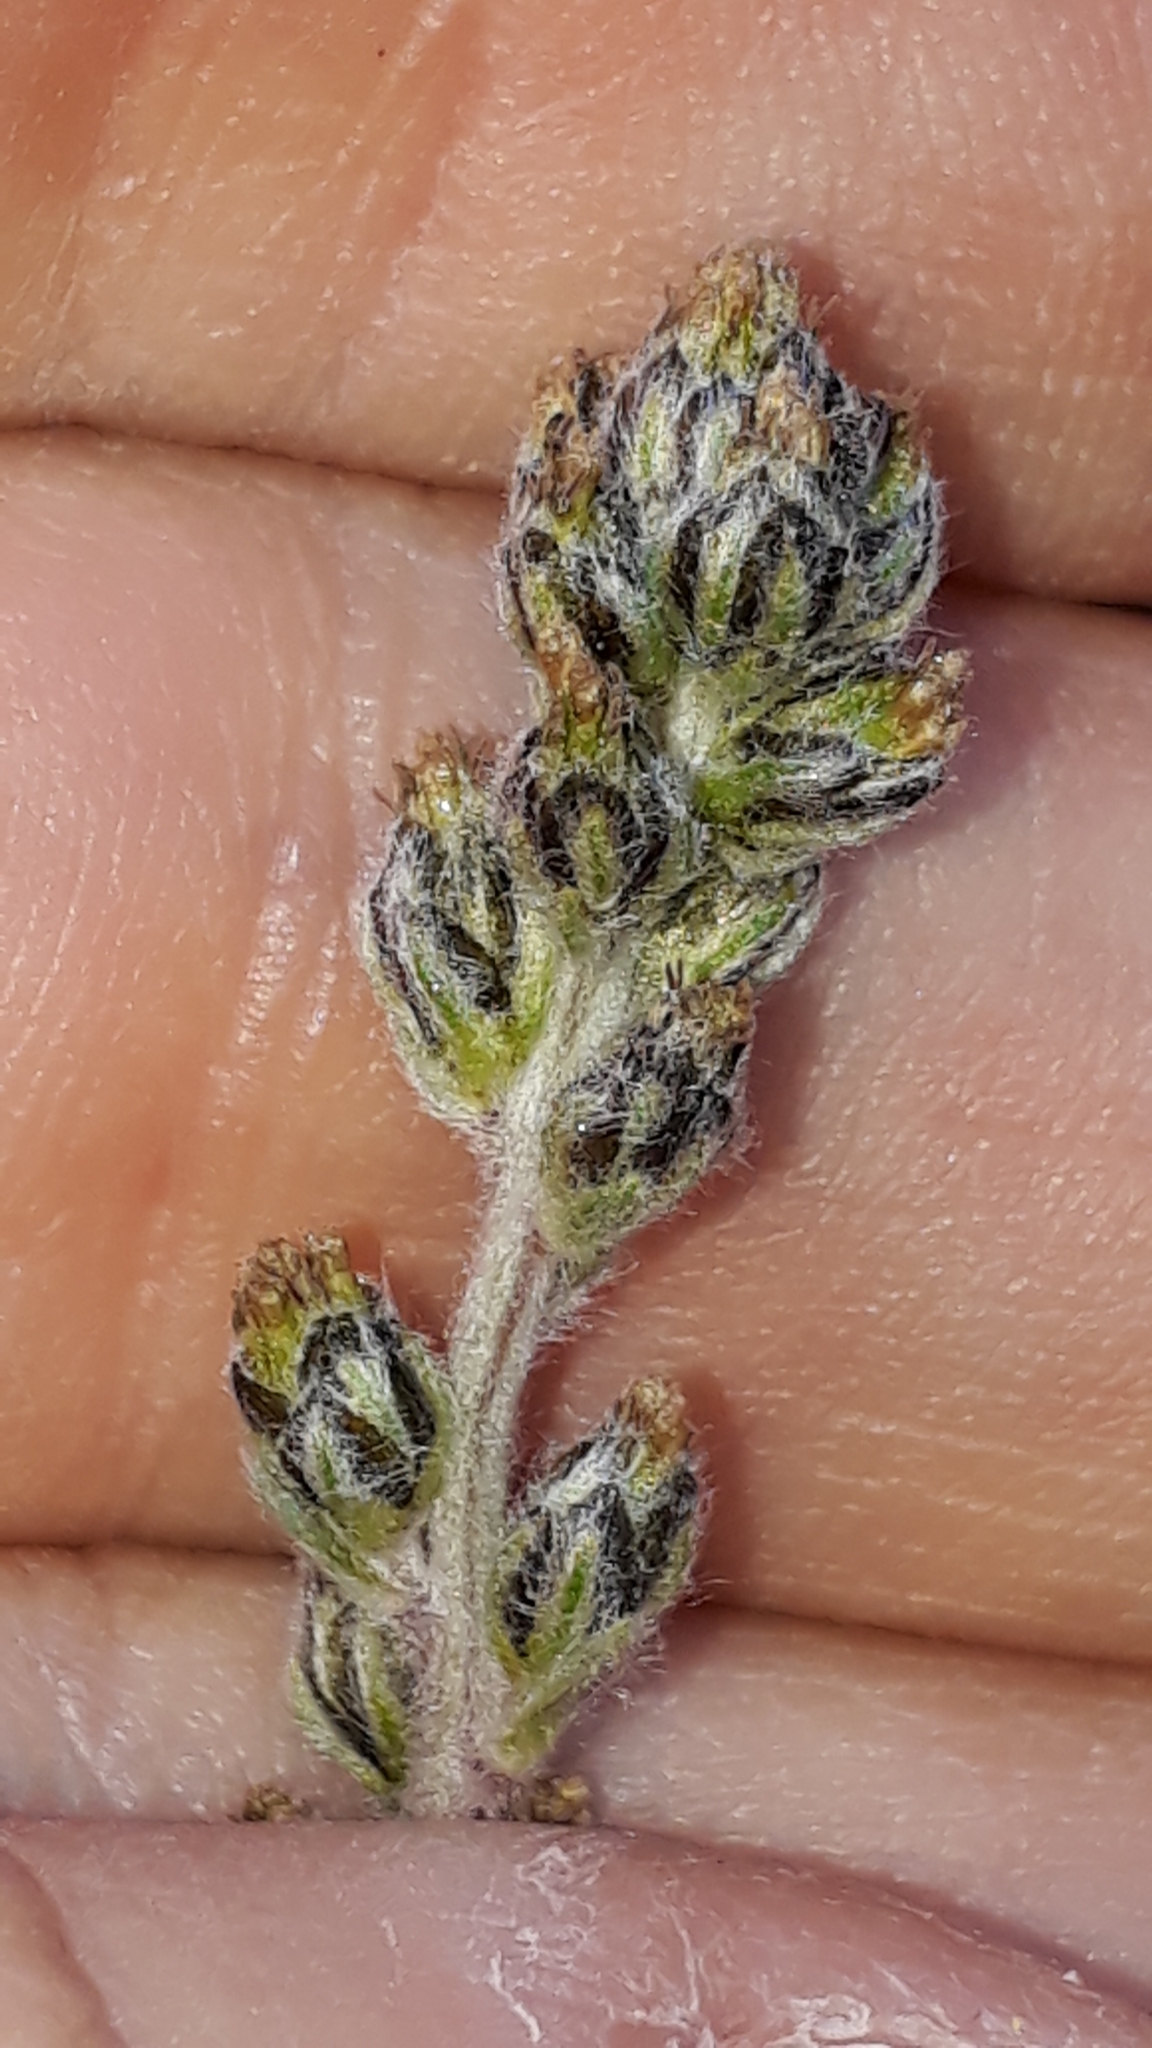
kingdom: Plantae
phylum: Tracheophyta
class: Magnoliopsida
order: Asterales
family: Asteraceae
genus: Artemisia
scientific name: Artemisia genipi
